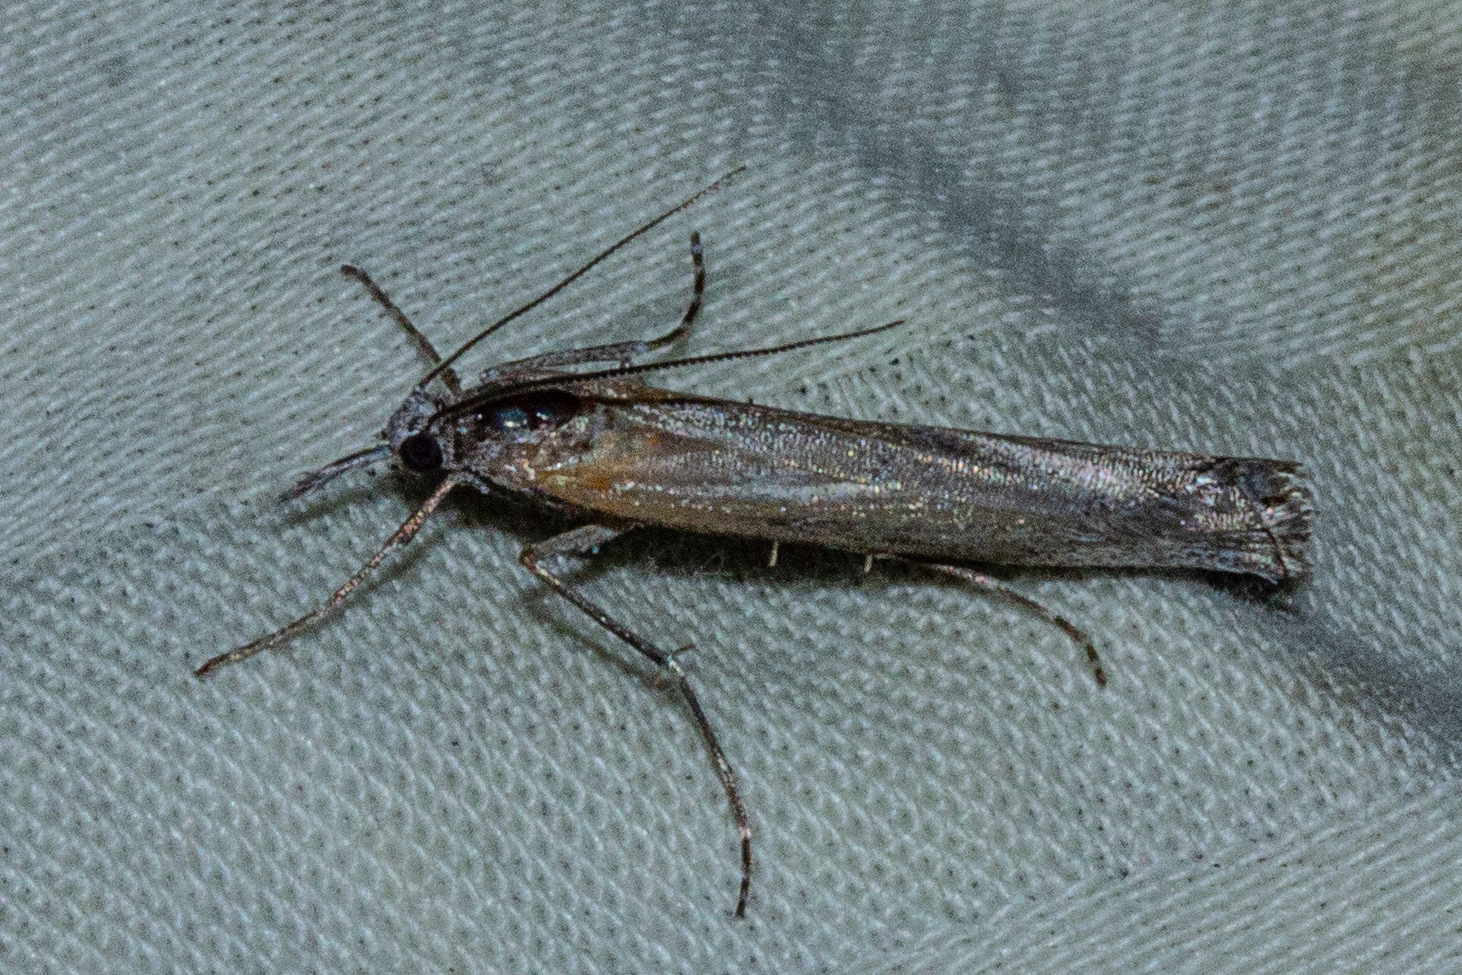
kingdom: Animalia
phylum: Arthropoda
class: Insecta
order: Lepidoptera
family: Crambidae
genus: Orocrambus
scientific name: Orocrambus cyclopicus
